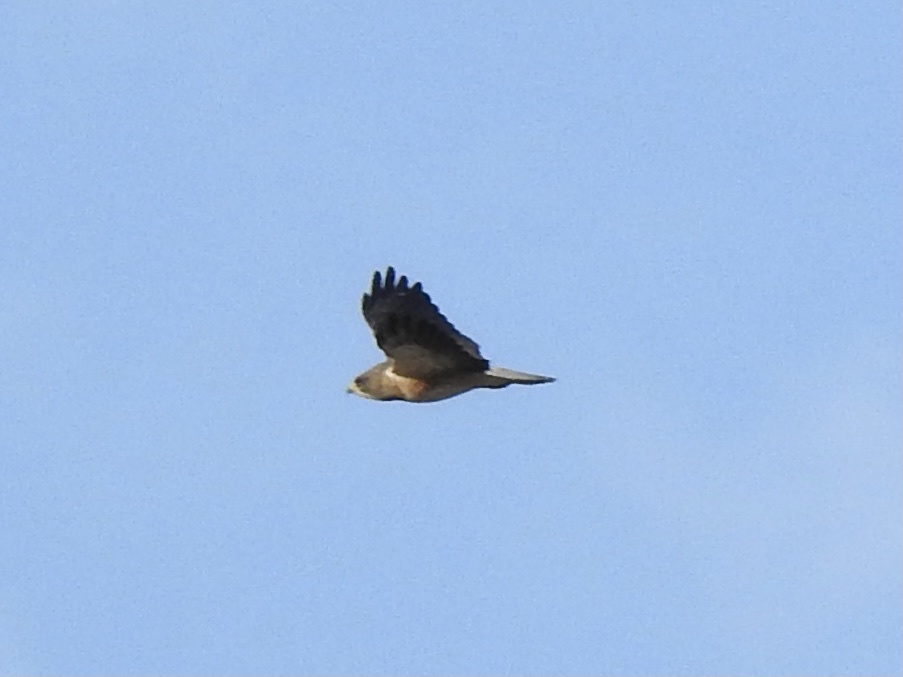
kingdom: Animalia
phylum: Chordata
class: Aves
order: Accipitriformes
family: Accipitridae
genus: Buteo
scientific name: Buteo swainsoni
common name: Swainson's hawk
